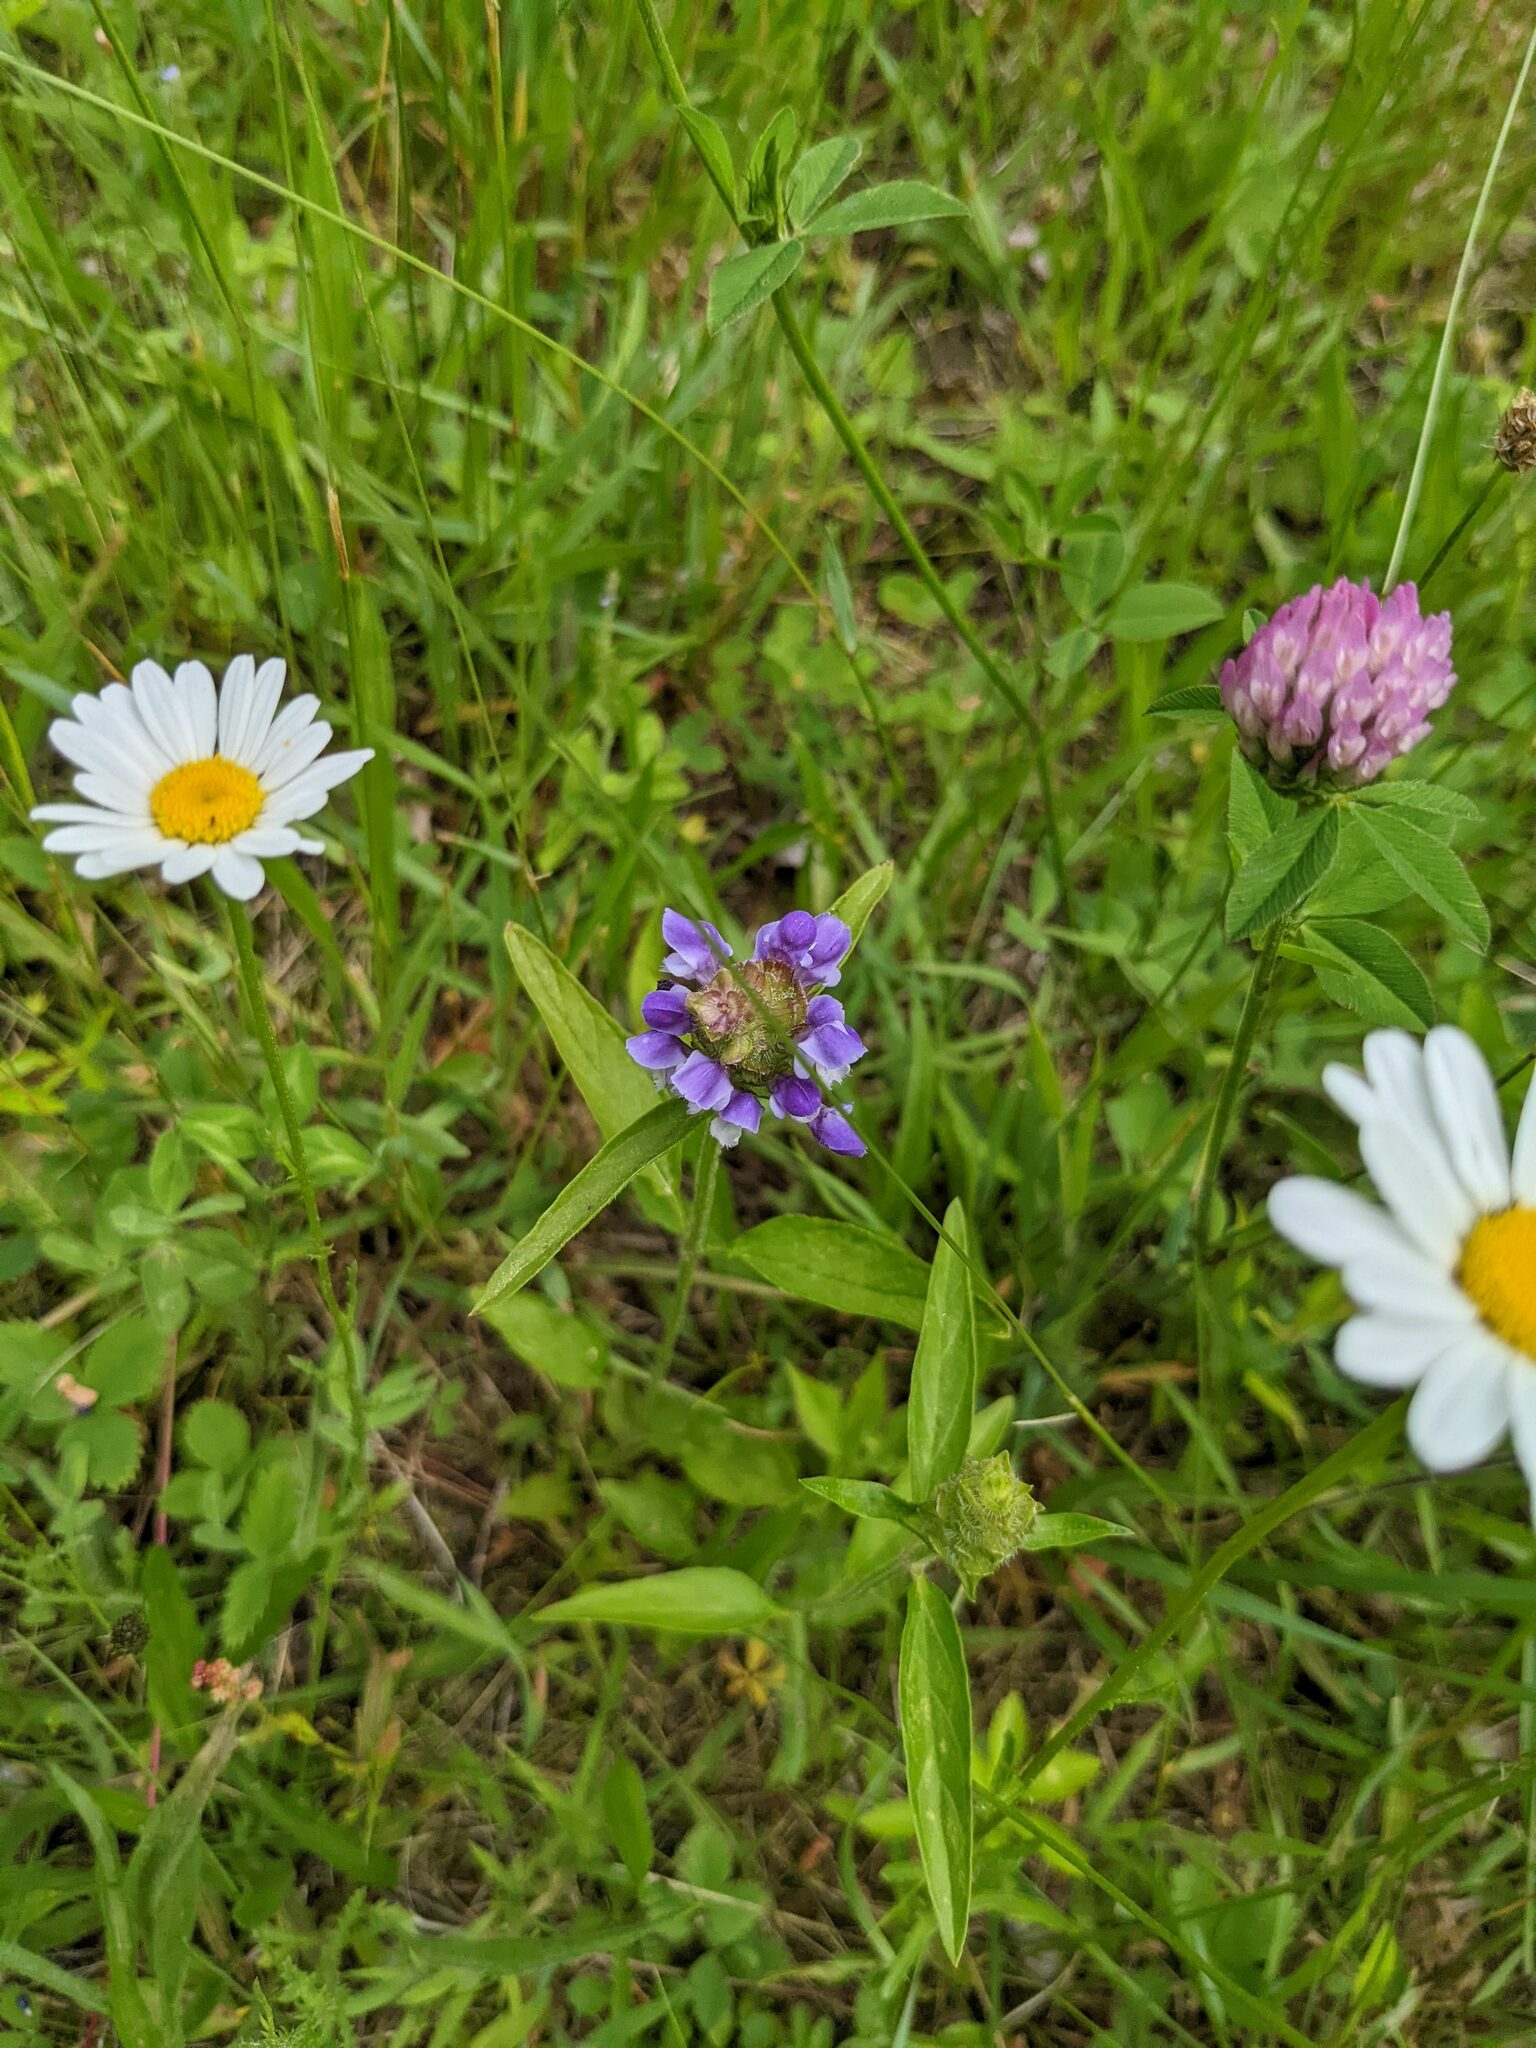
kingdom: Plantae
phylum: Tracheophyta
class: Magnoliopsida
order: Lamiales
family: Lamiaceae
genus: Prunella
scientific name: Prunella vulgaris
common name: Heal-all
